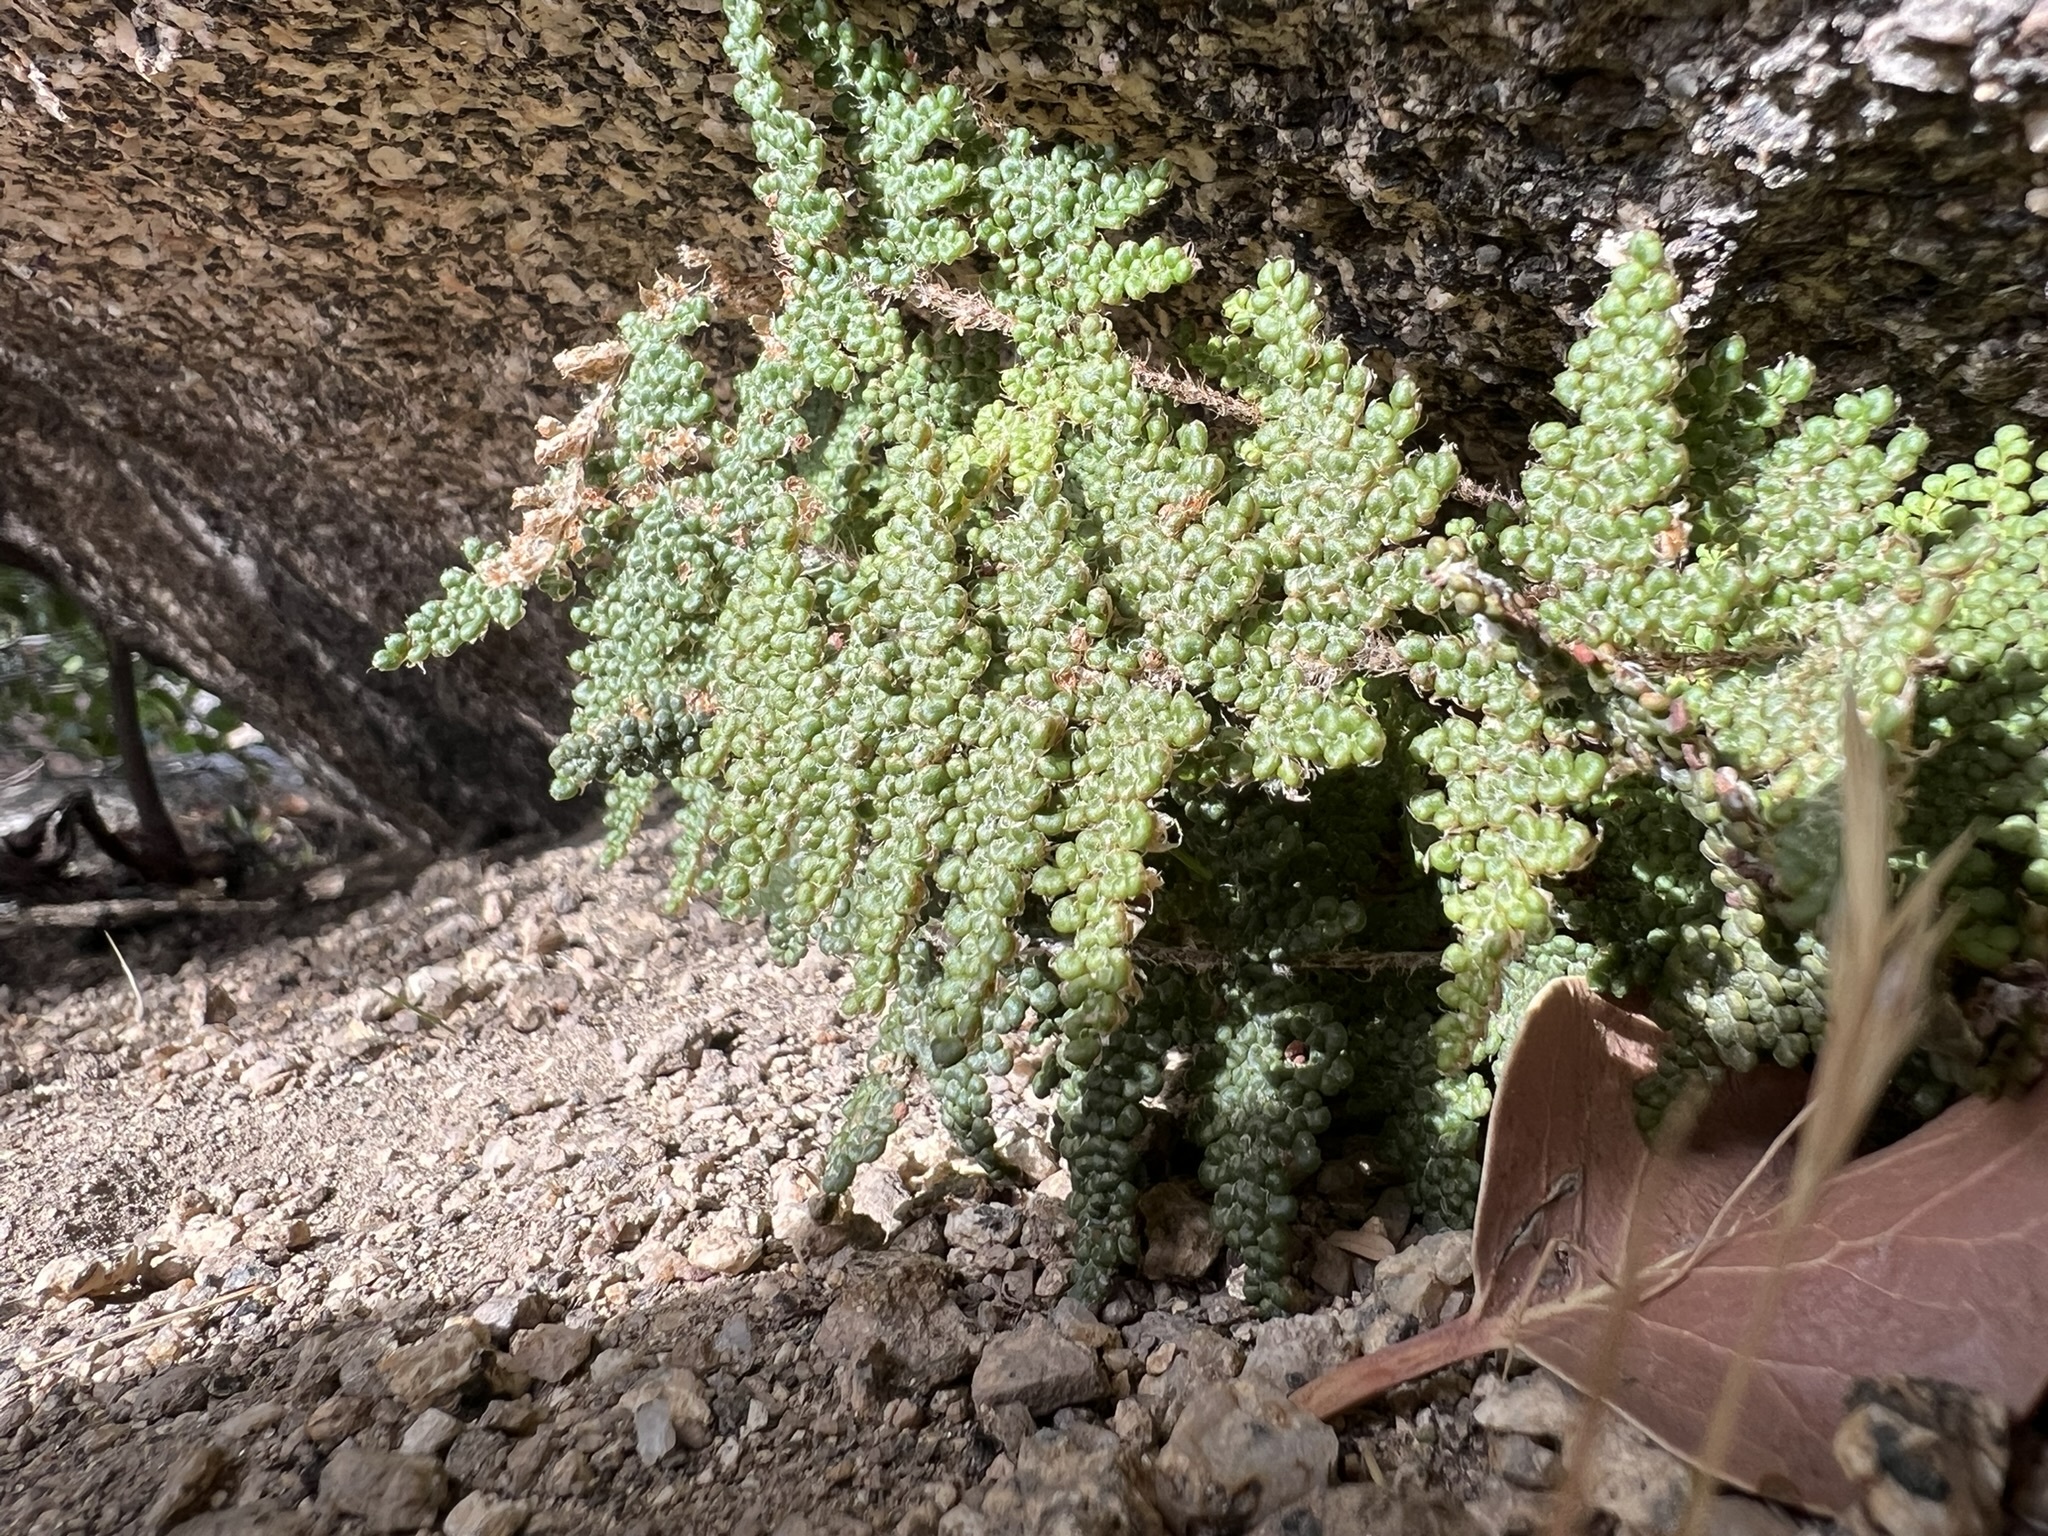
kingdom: Plantae
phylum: Tracheophyta
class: Polypodiopsida
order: Polypodiales
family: Pteridaceae
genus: Myriopteris
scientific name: Myriopteris covillei
